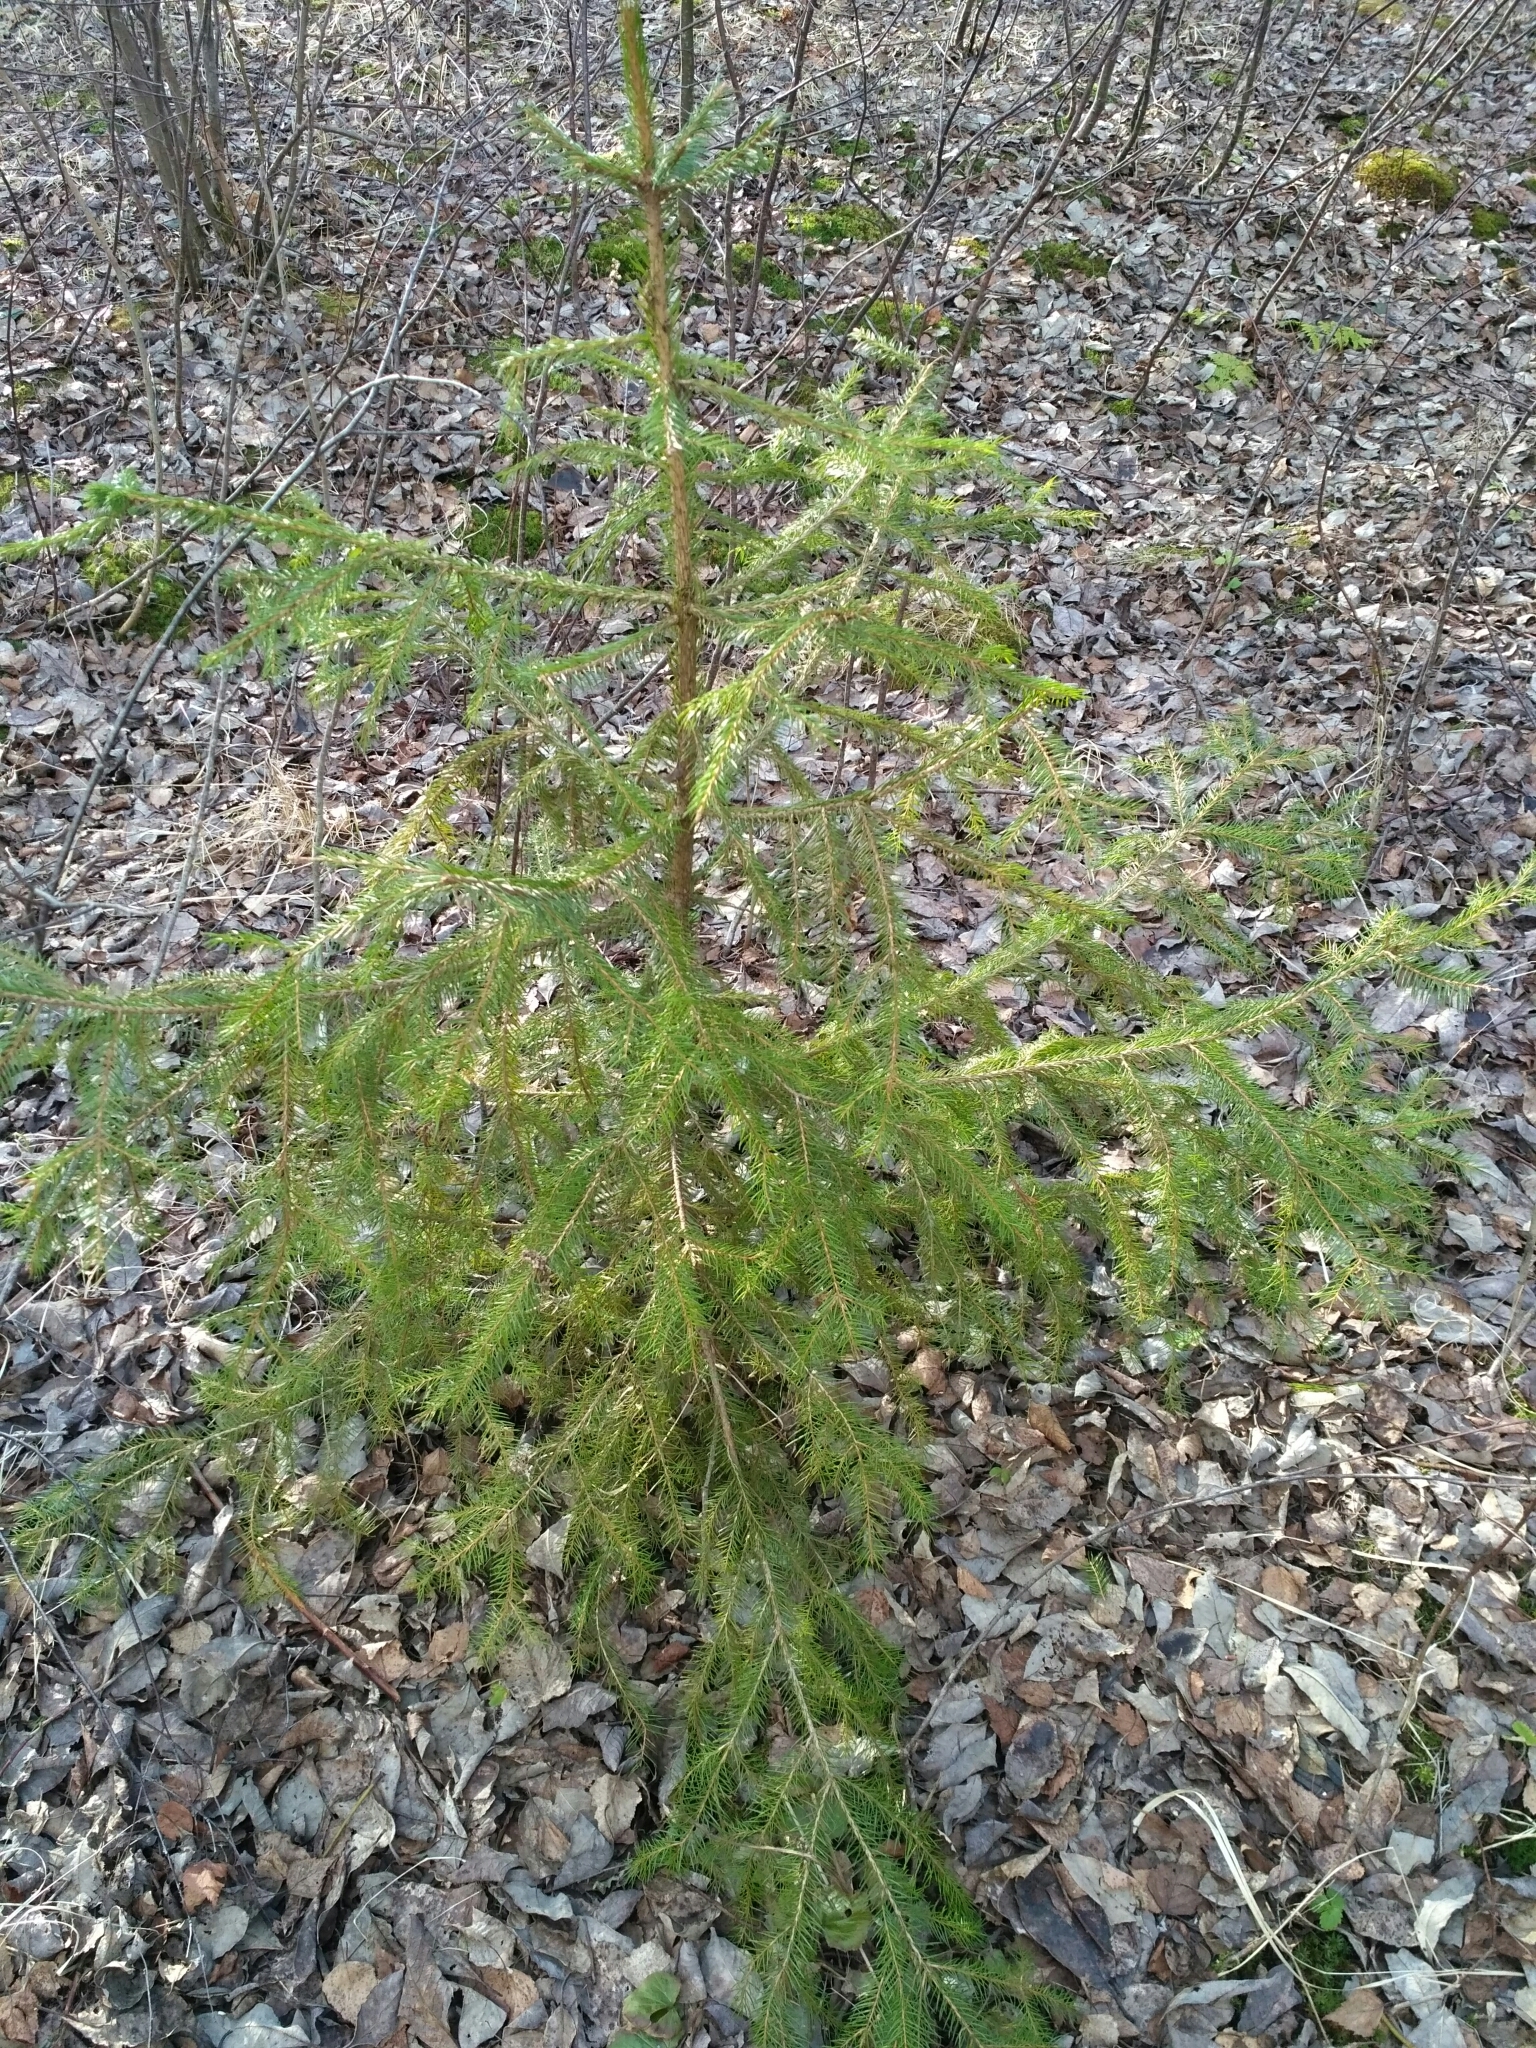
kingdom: Plantae
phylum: Tracheophyta
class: Pinopsida
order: Pinales
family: Pinaceae
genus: Picea
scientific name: Picea abies
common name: Norway spruce
